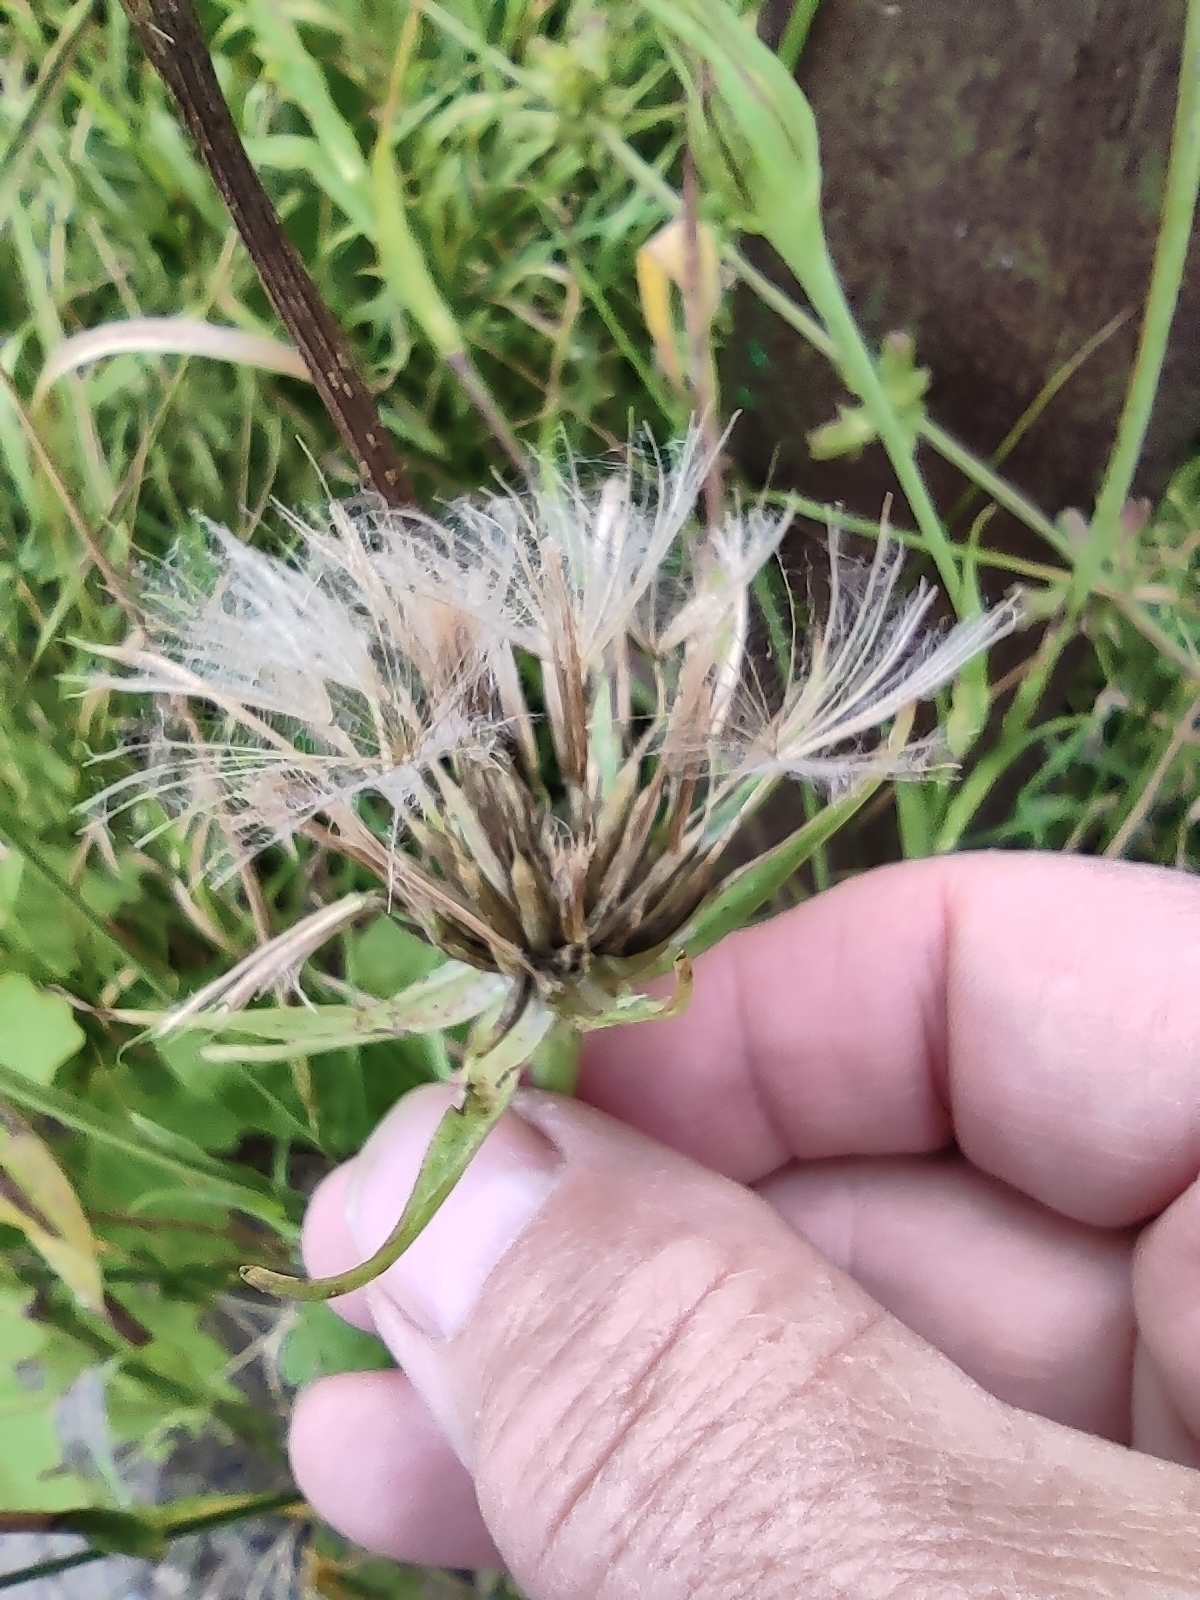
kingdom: Plantae
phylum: Tracheophyta
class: Magnoliopsida
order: Asterales
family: Asteraceae
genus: Tragopogon
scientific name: Tragopogon pratensis
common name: Goat's-beard
